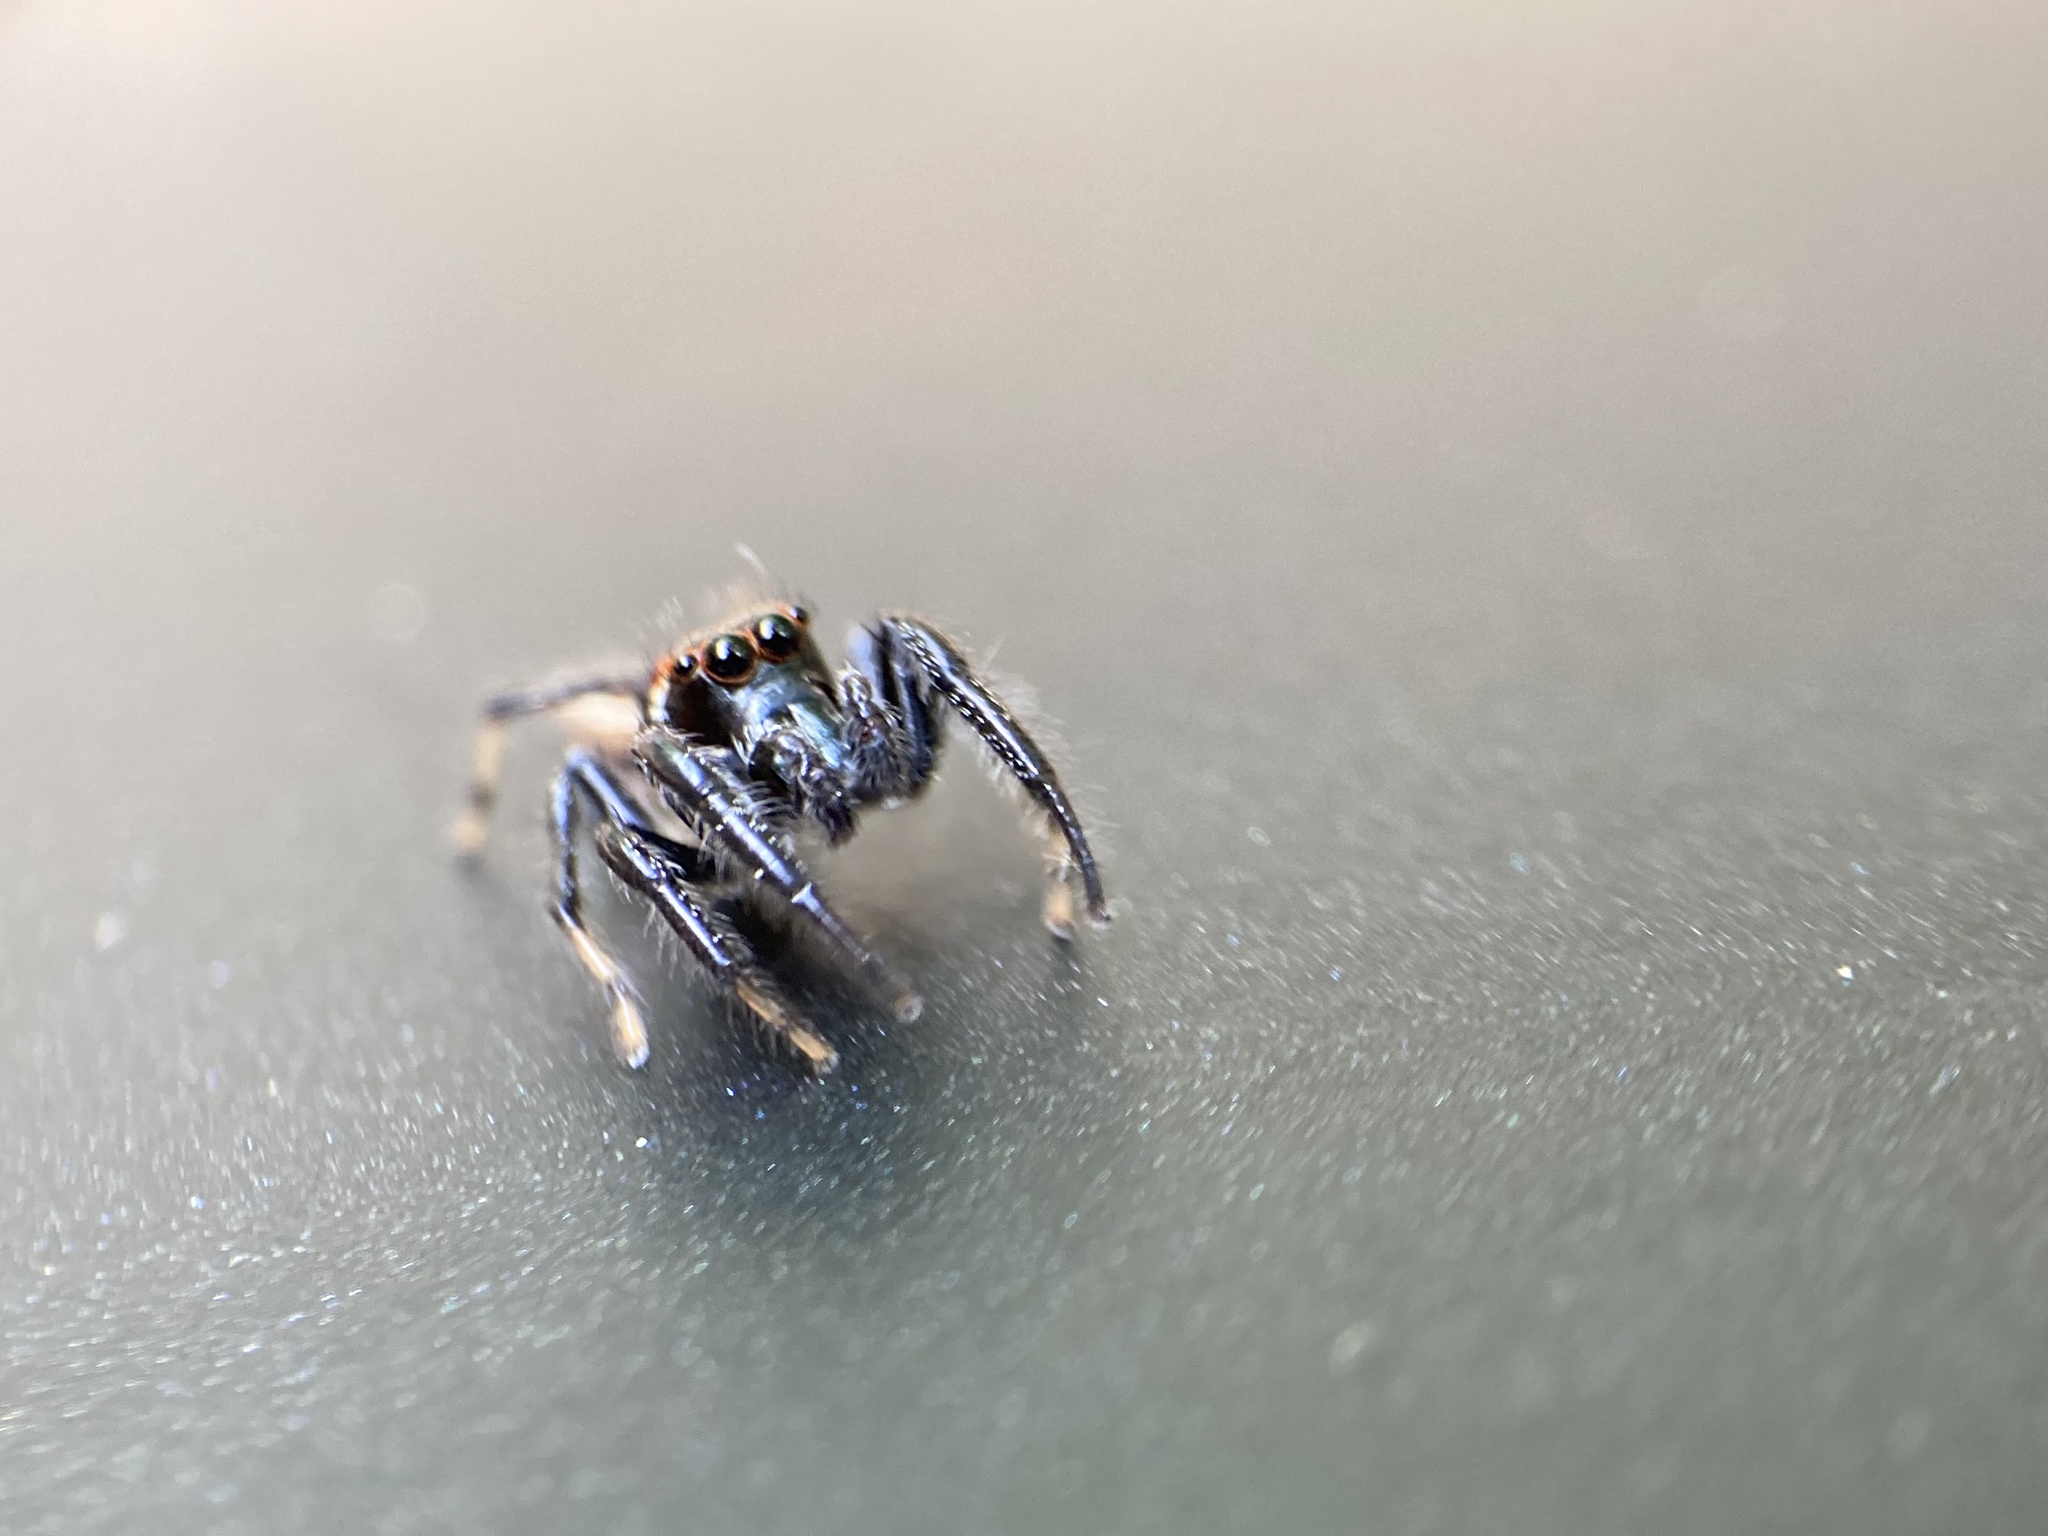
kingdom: Animalia
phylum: Arthropoda
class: Arachnida
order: Araneae
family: Salticidae
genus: Colonus
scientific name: Colonus sylvanus
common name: Jumping spiders
